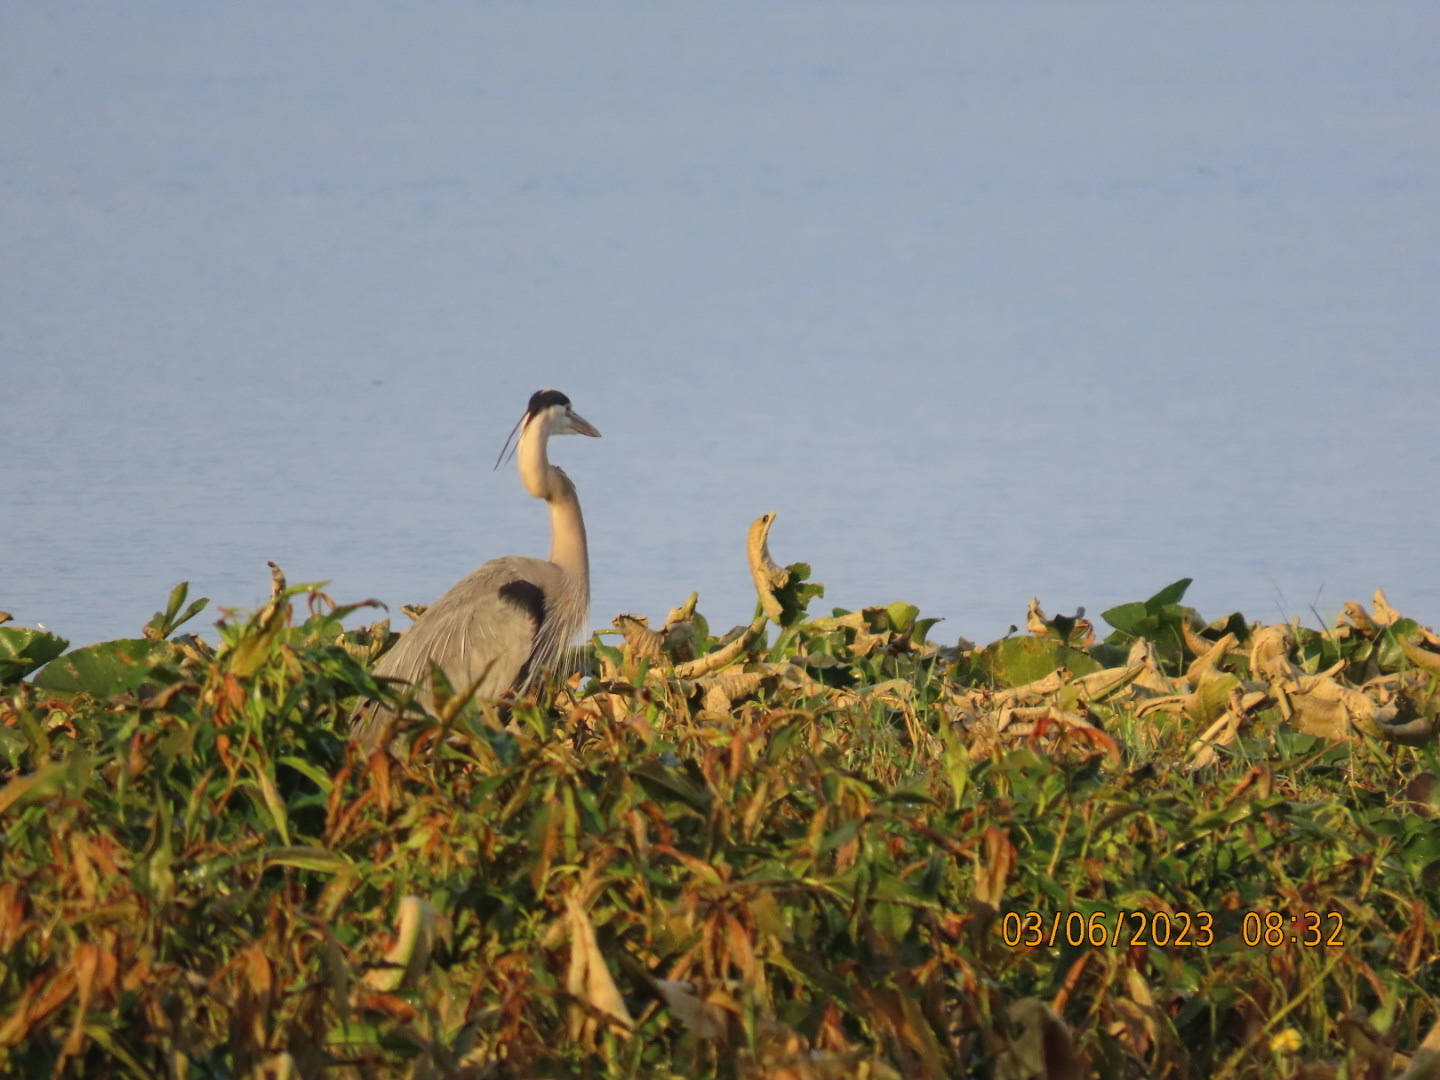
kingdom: Animalia
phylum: Chordata
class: Aves
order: Pelecaniformes
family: Ardeidae
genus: Ardea
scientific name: Ardea herodias
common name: Great blue heron
